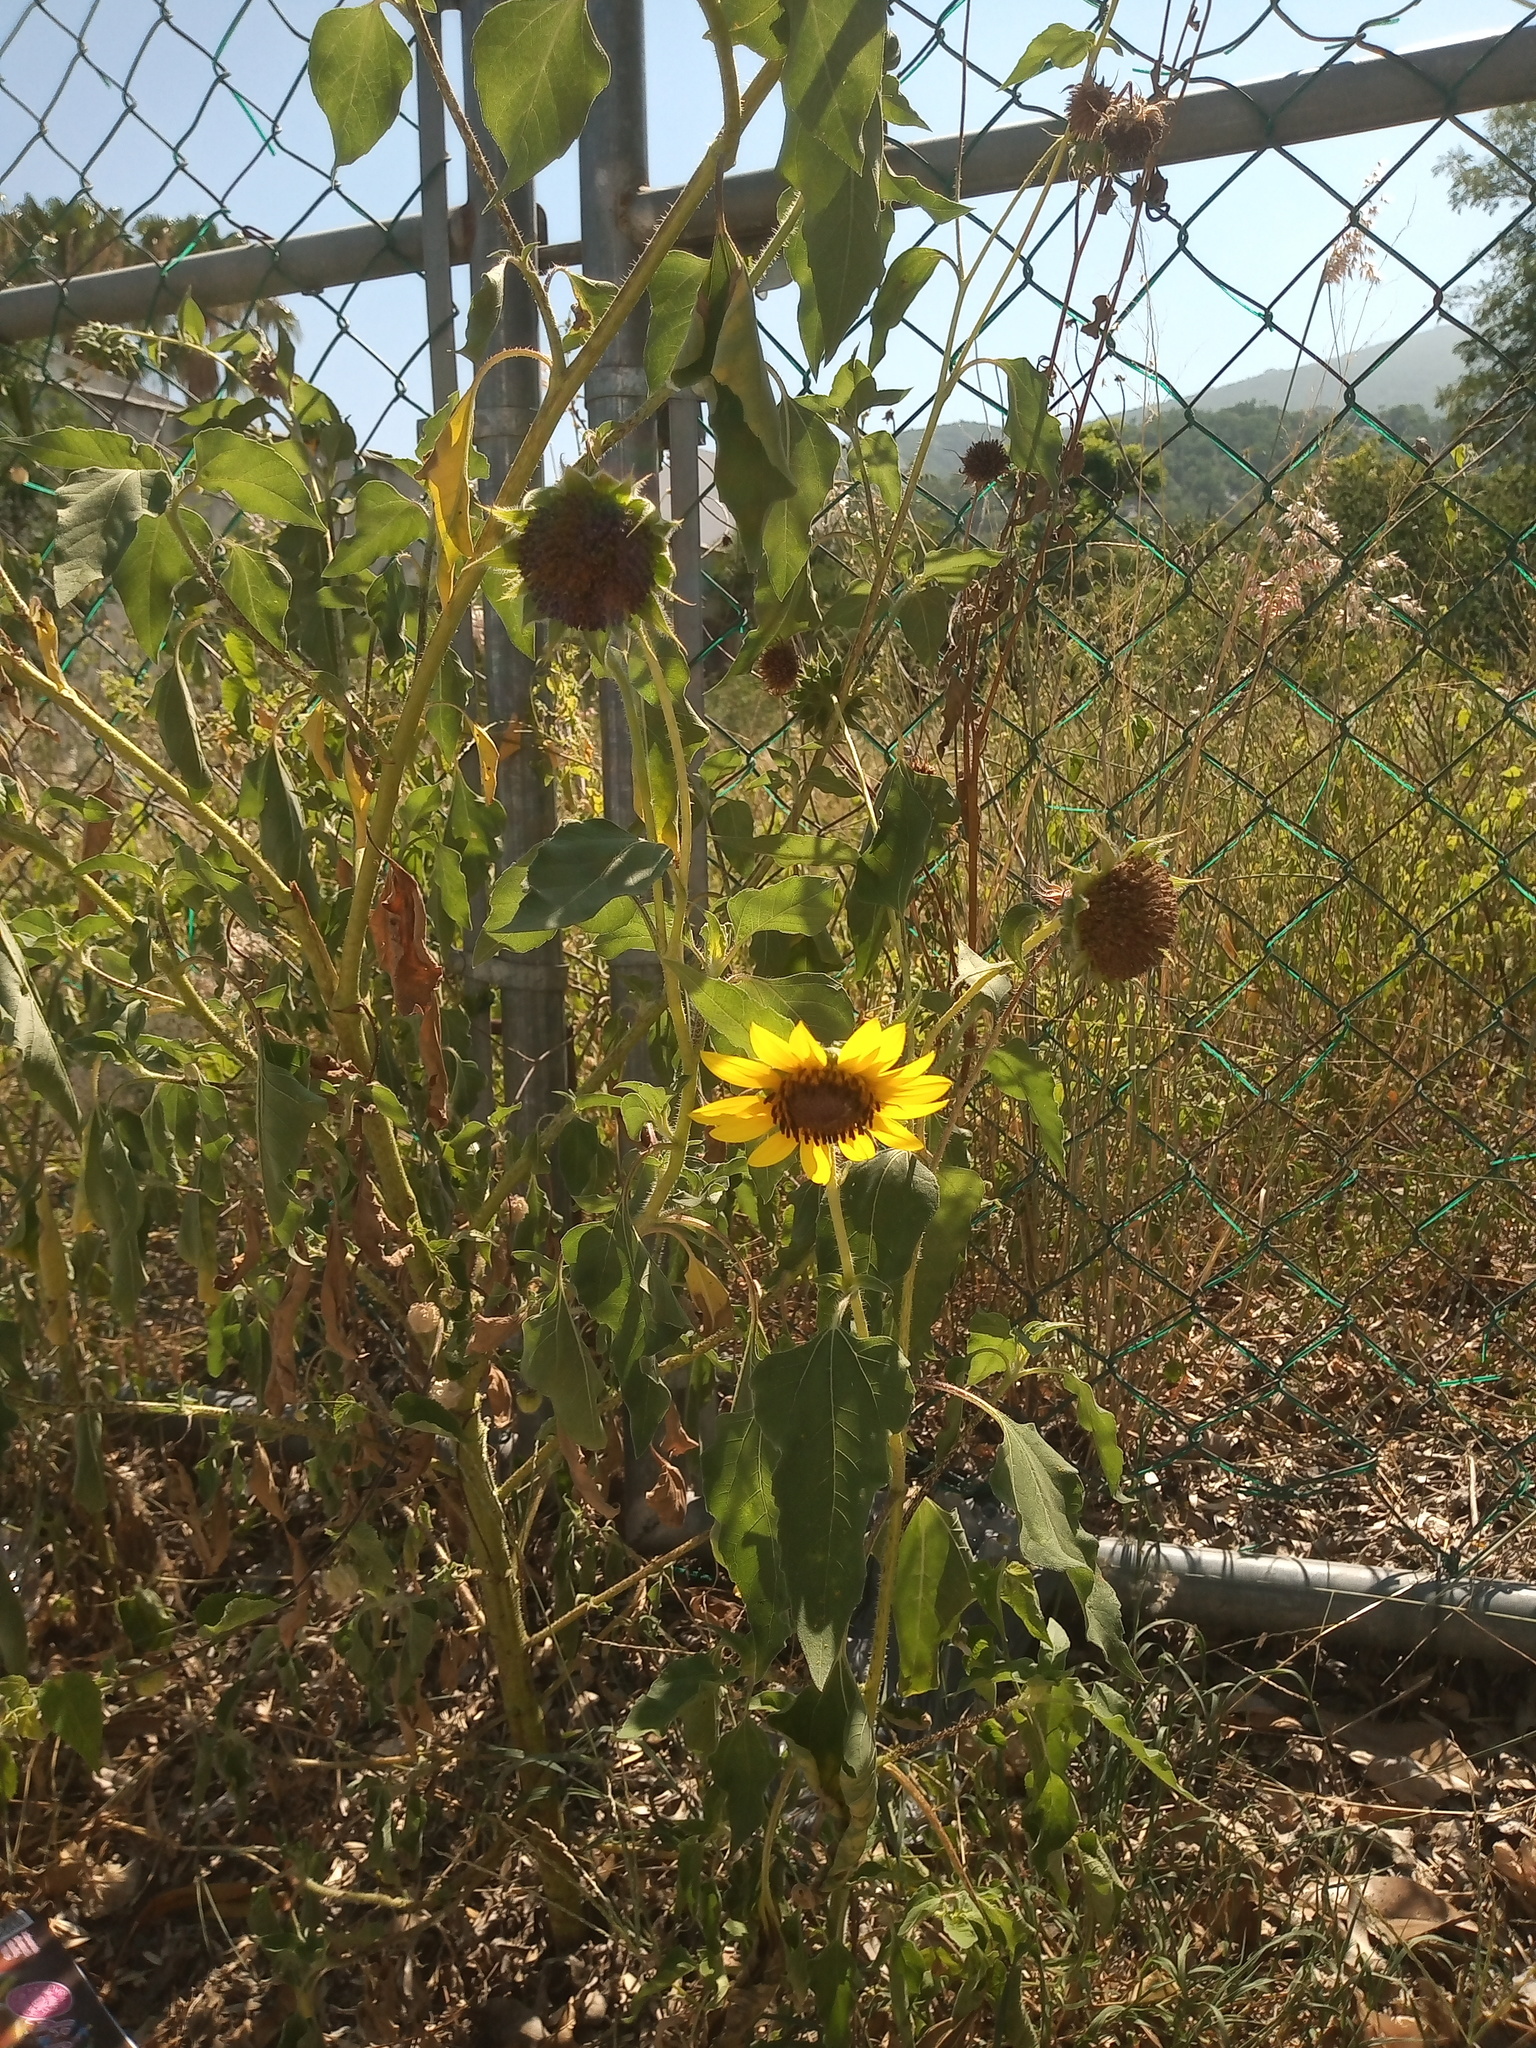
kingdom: Plantae
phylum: Tracheophyta
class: Magnoliopsida
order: Asterales
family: Asteraceae
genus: Helianthus
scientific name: Helianthus annuus
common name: Sunflower
